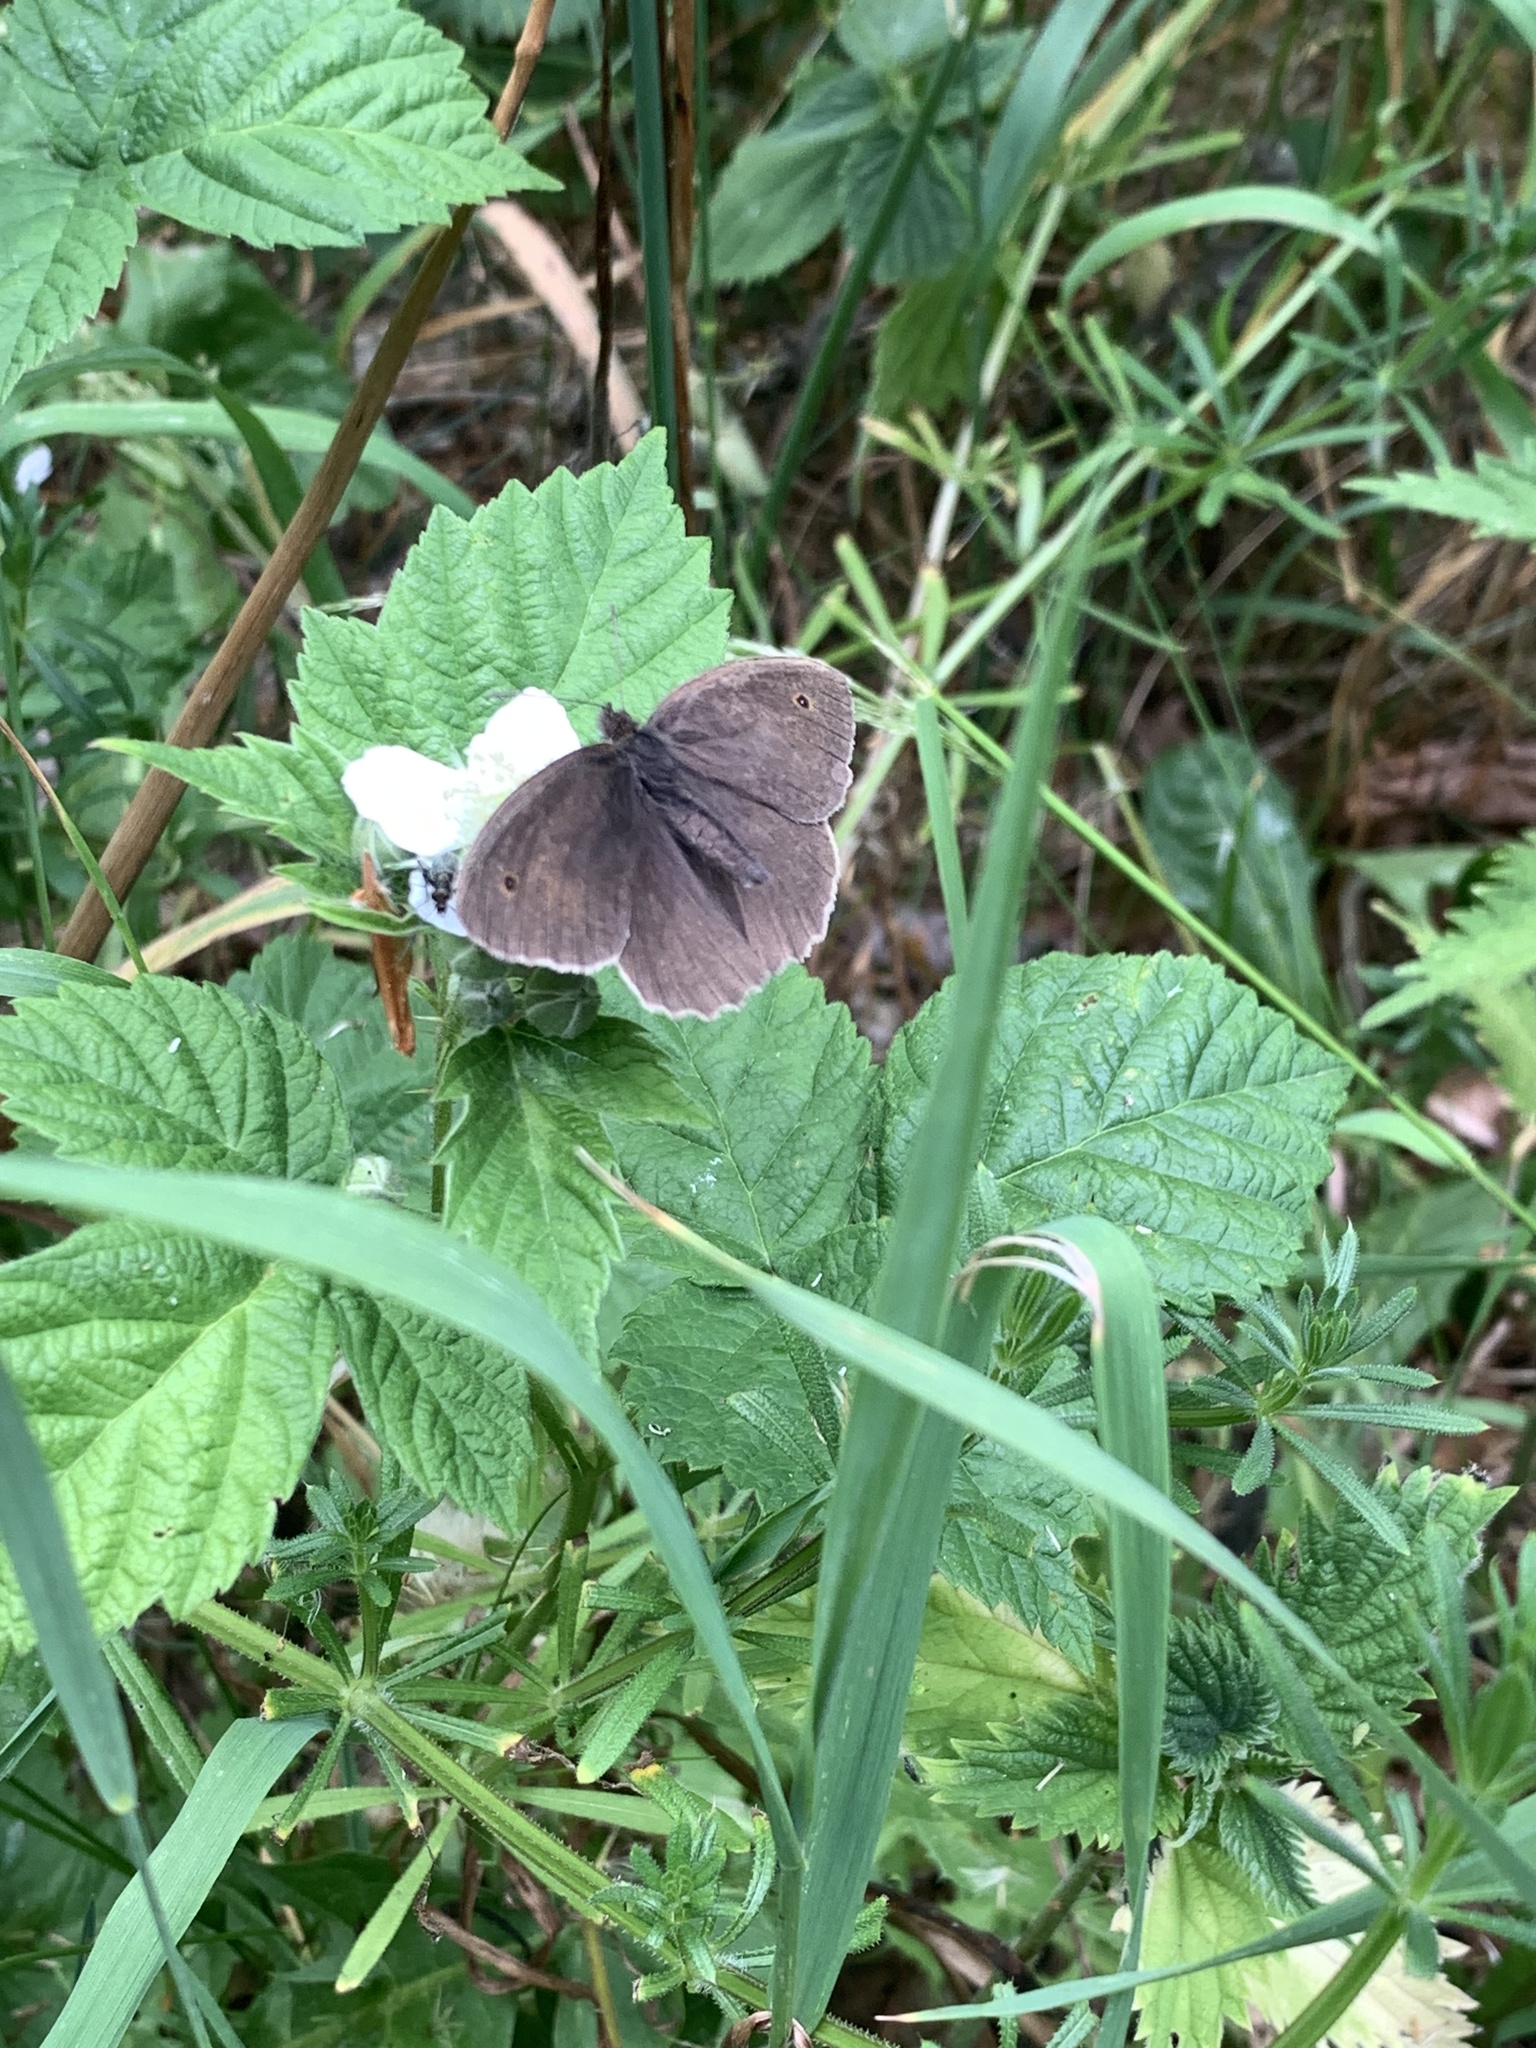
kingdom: Animalia
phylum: Arthropoda
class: Insecta
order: Lepidoptera
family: Nymphalidae
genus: Maniola
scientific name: Maniola jurtina
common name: Meadow brown
